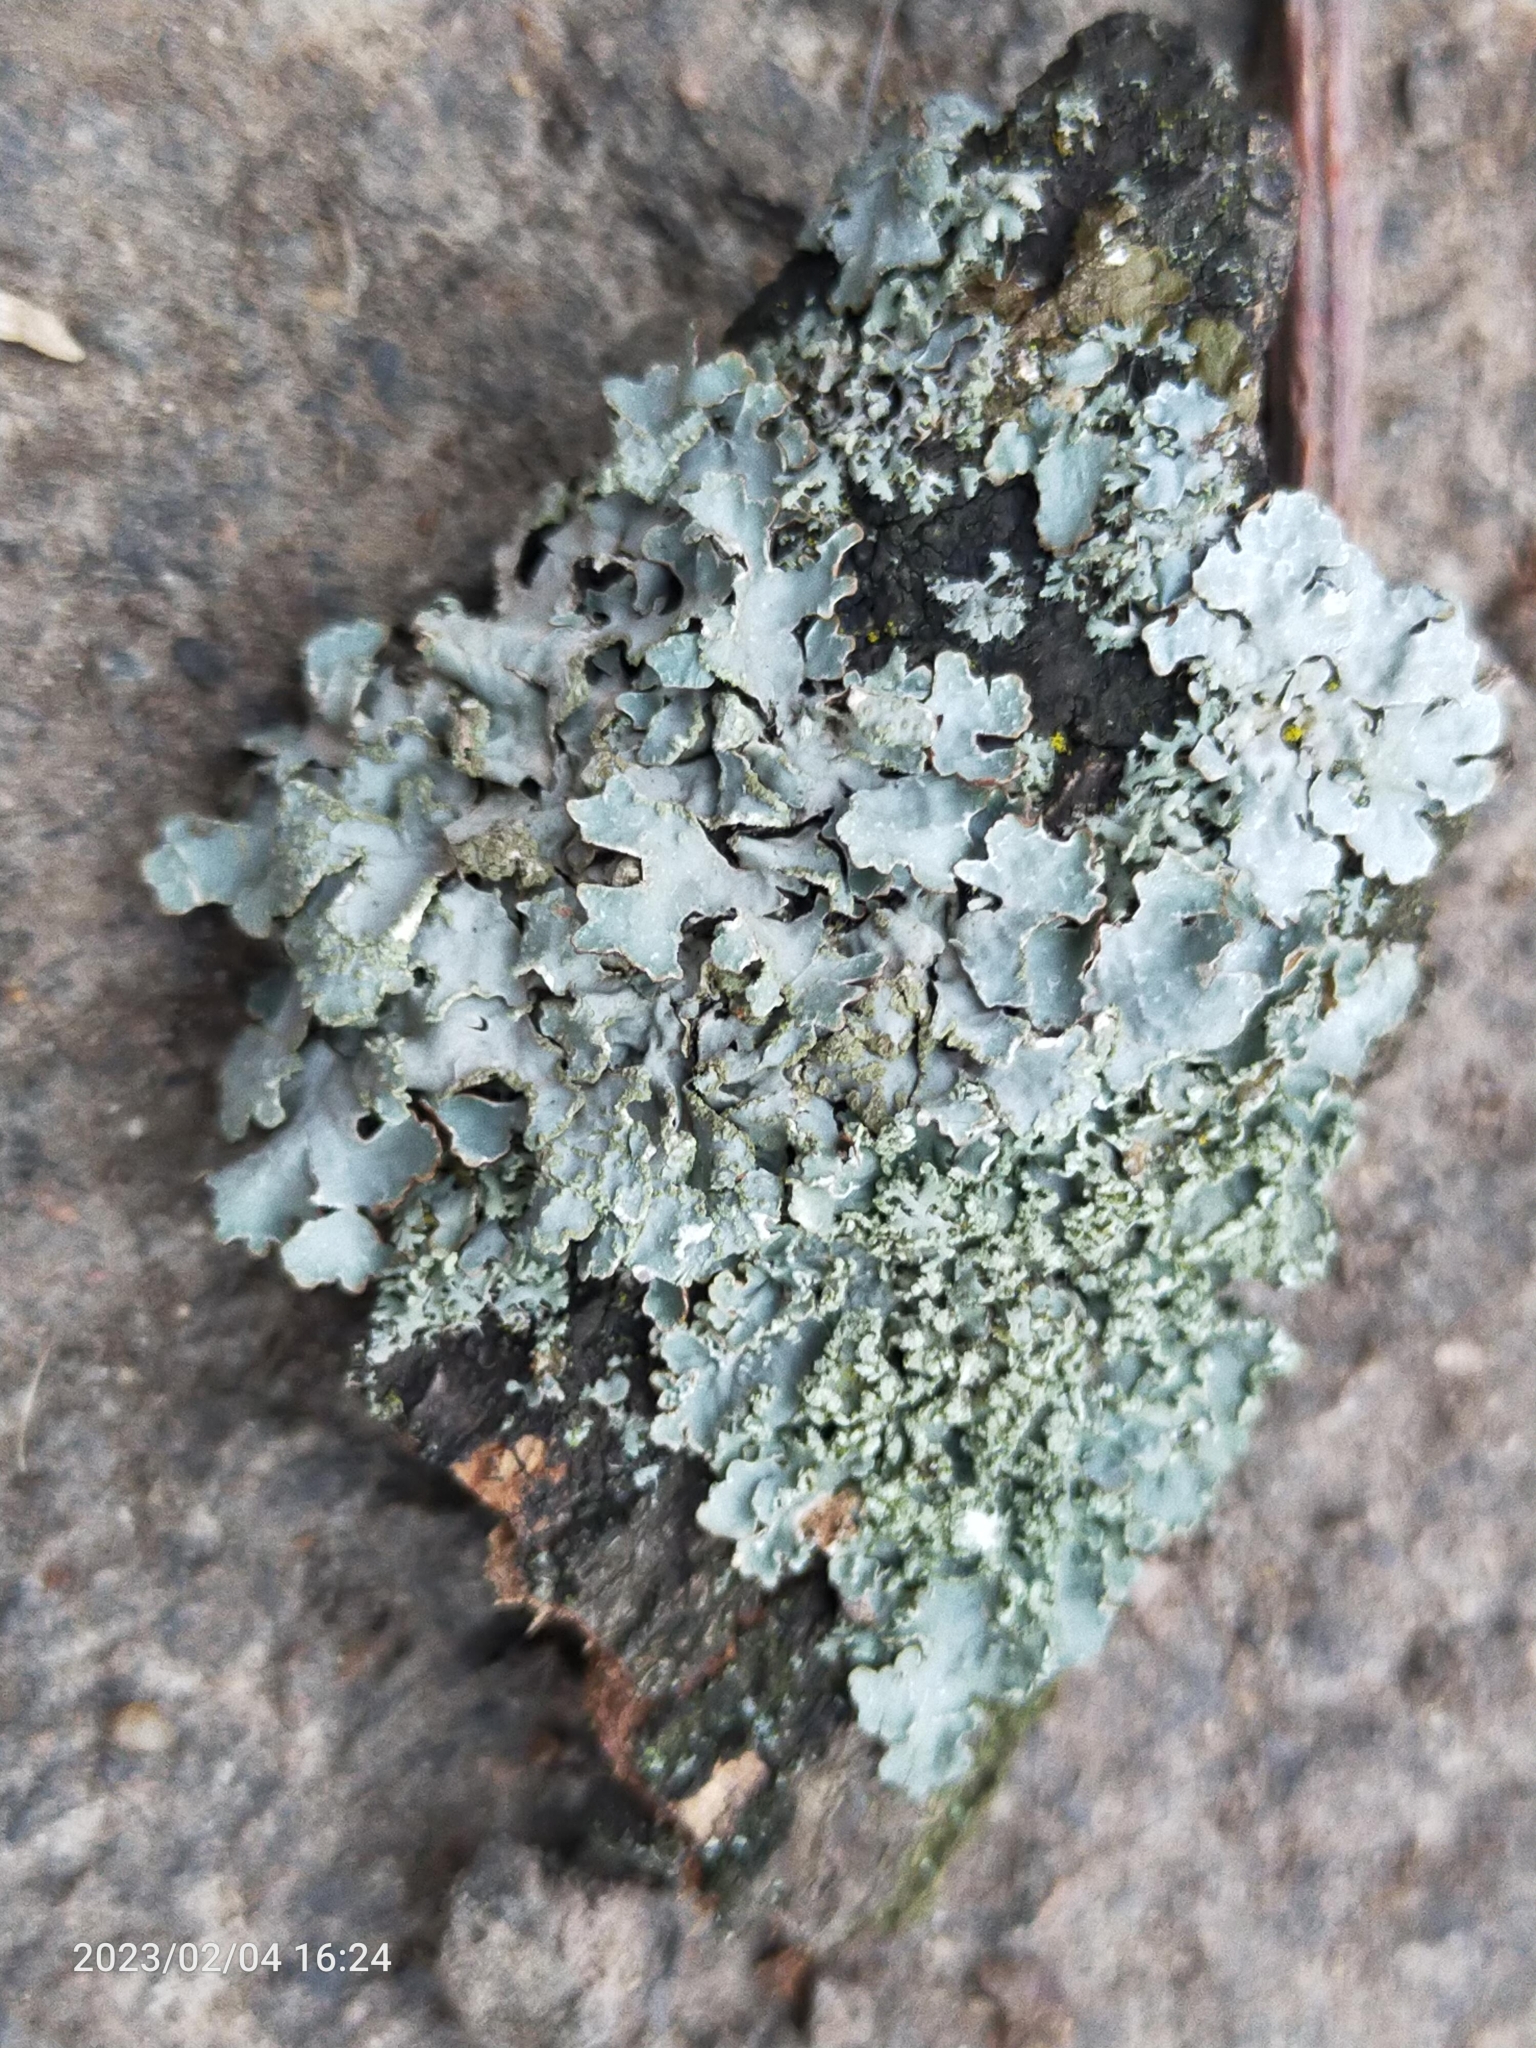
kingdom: Fungi
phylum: Ascomycota
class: Lecanoromycetes
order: Lecanorales
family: Parmeliaceae
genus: Parmelia
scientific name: Parmelia sulcata
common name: Netted shield lichen
